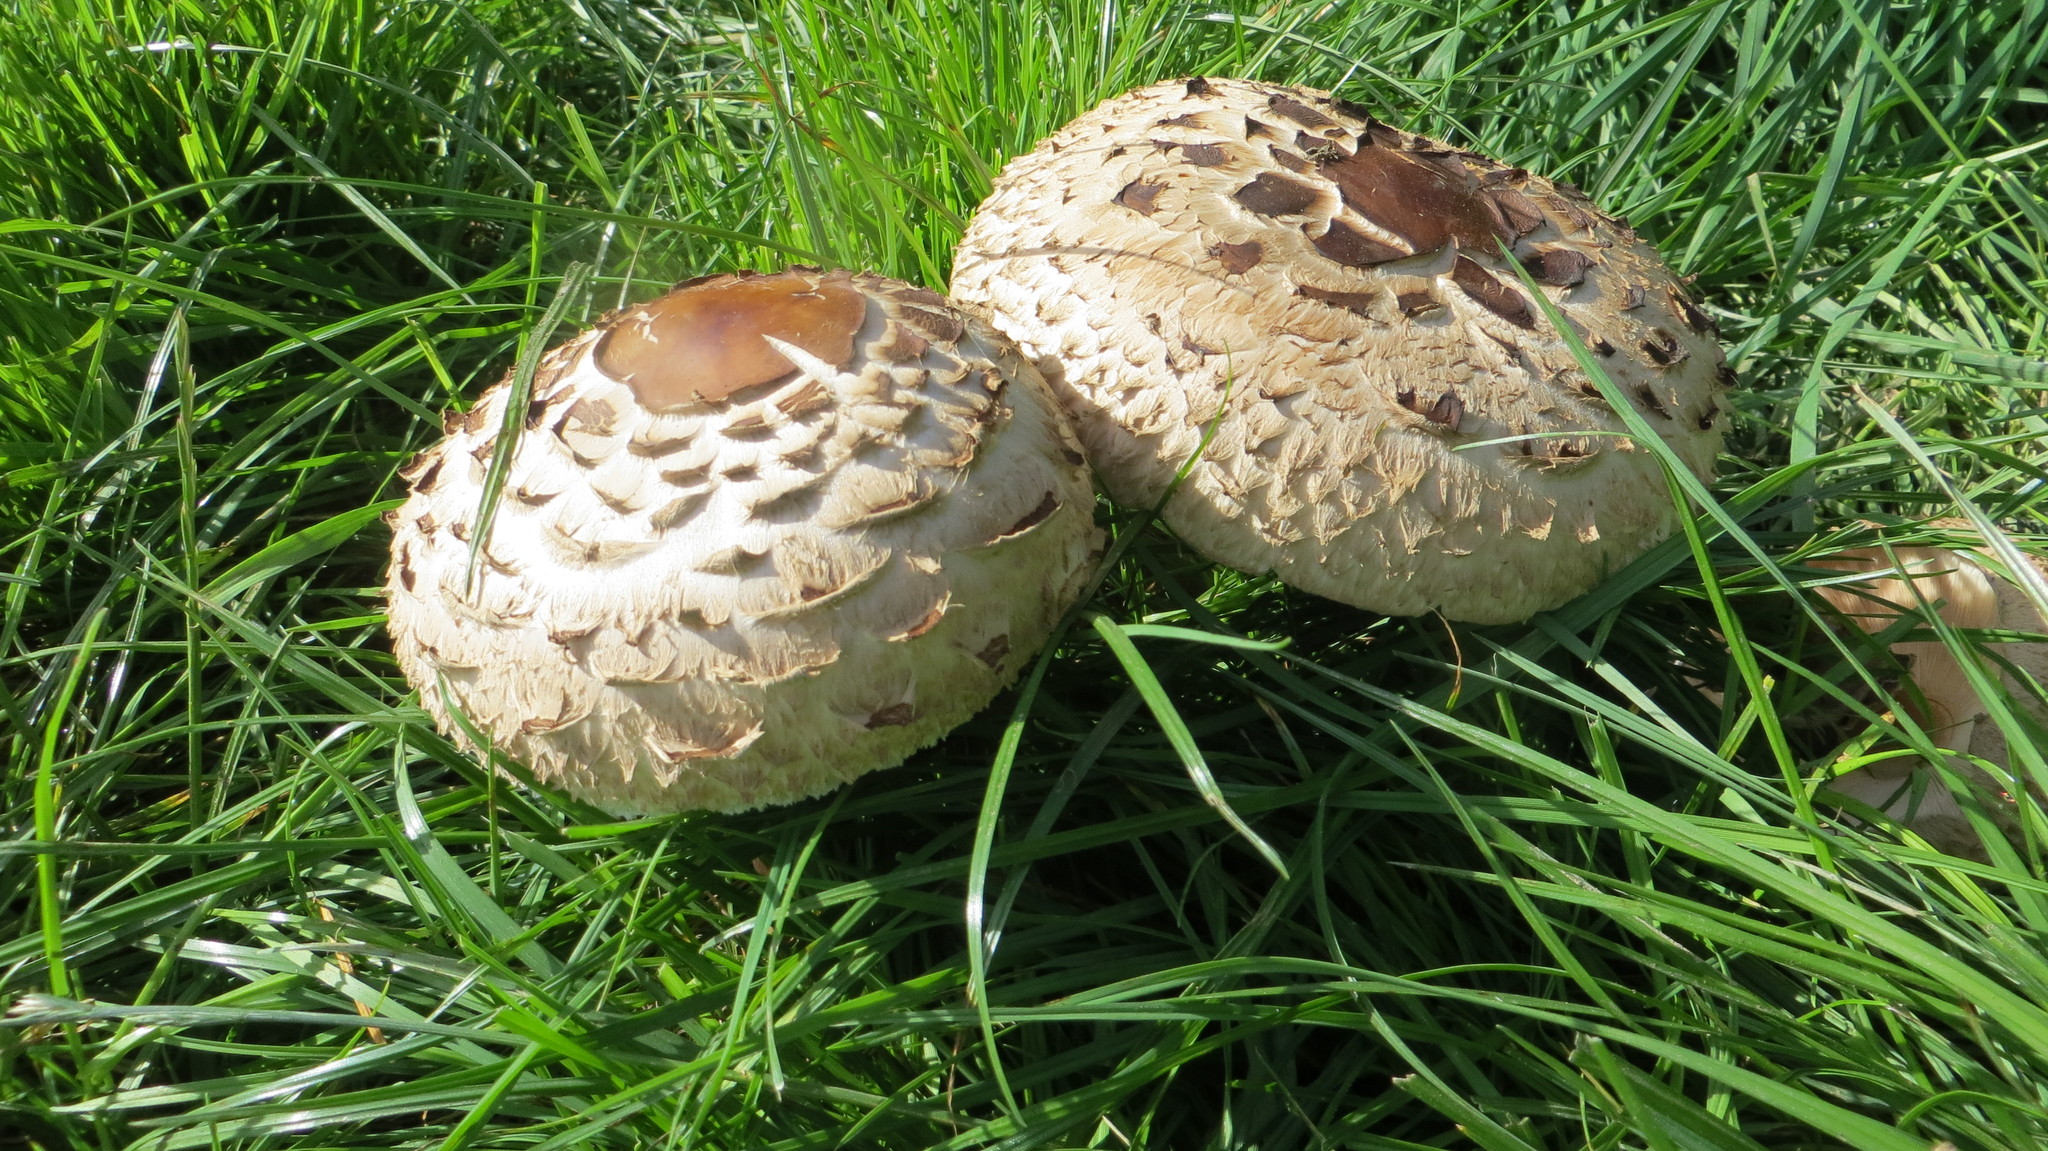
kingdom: Fungi
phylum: Basidiomycota
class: Agaricomycetes
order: Agaricales
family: Agaricaceae
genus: Chlorophyllum
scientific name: Chlorophyllum rhacodes
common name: Shaggy parasol
